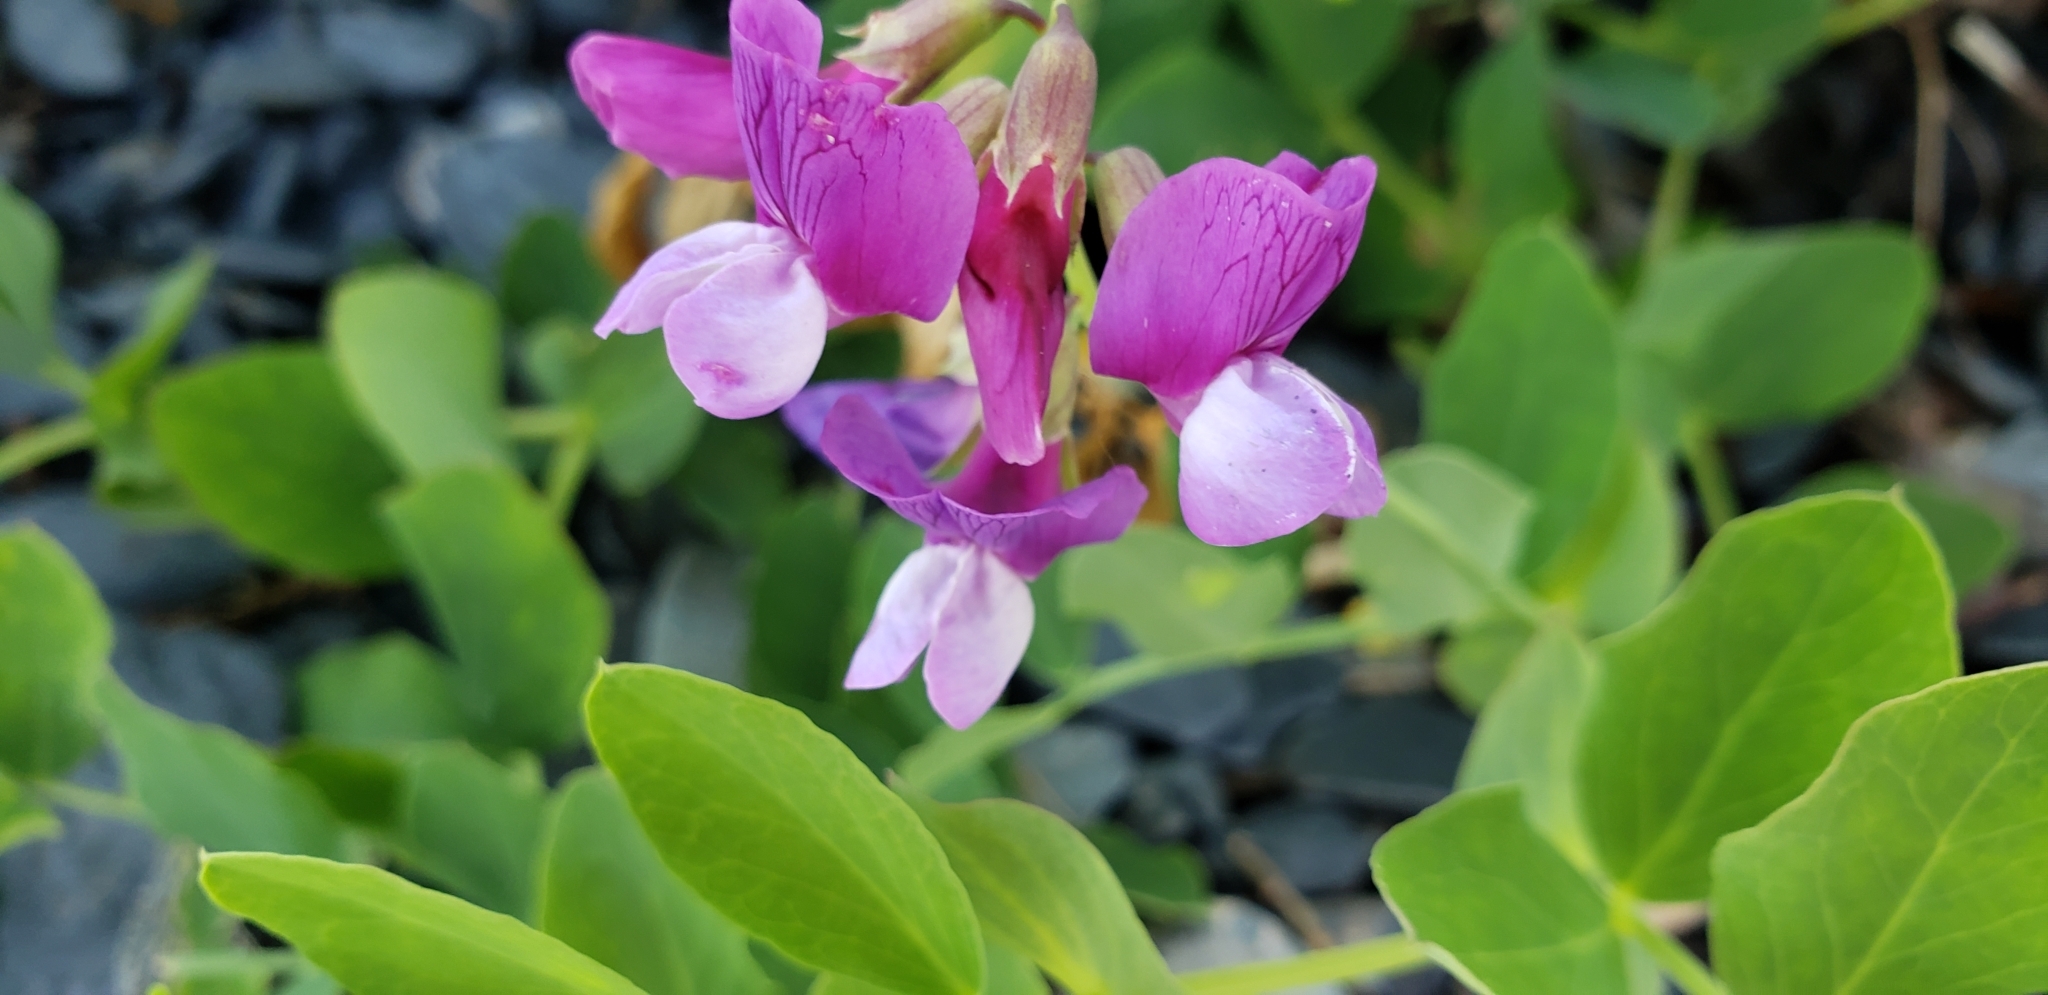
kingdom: Plantae
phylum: Tracheophyta
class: Magnoliopsida
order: Fabales
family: Fabaceae
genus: Lathyrus
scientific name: Lathyrus japonicus
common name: Sea pea
